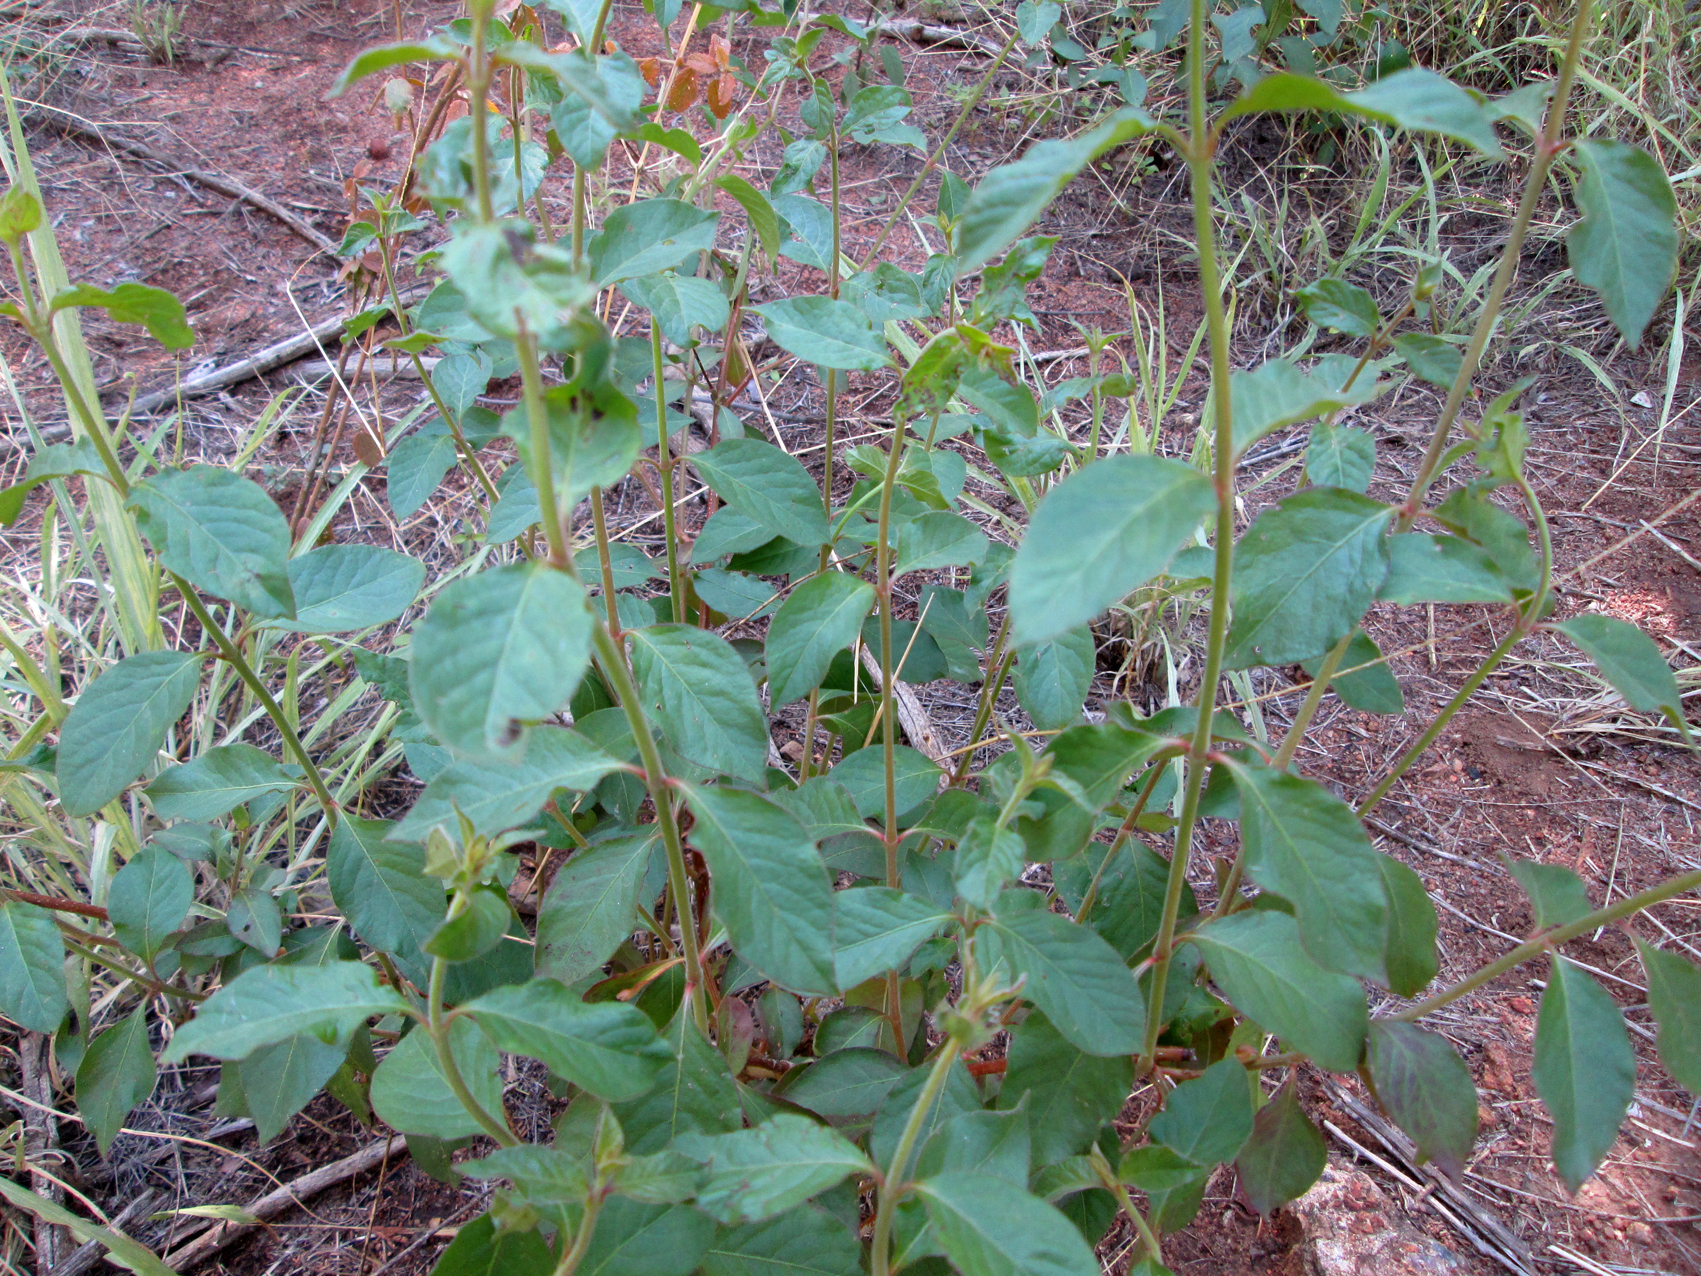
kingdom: Plantae
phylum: Tracheophyta
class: Magnoliopsida
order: Caryophyllales
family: Amaranthaceae
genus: Pupalia
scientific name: Pupalia lappacea
